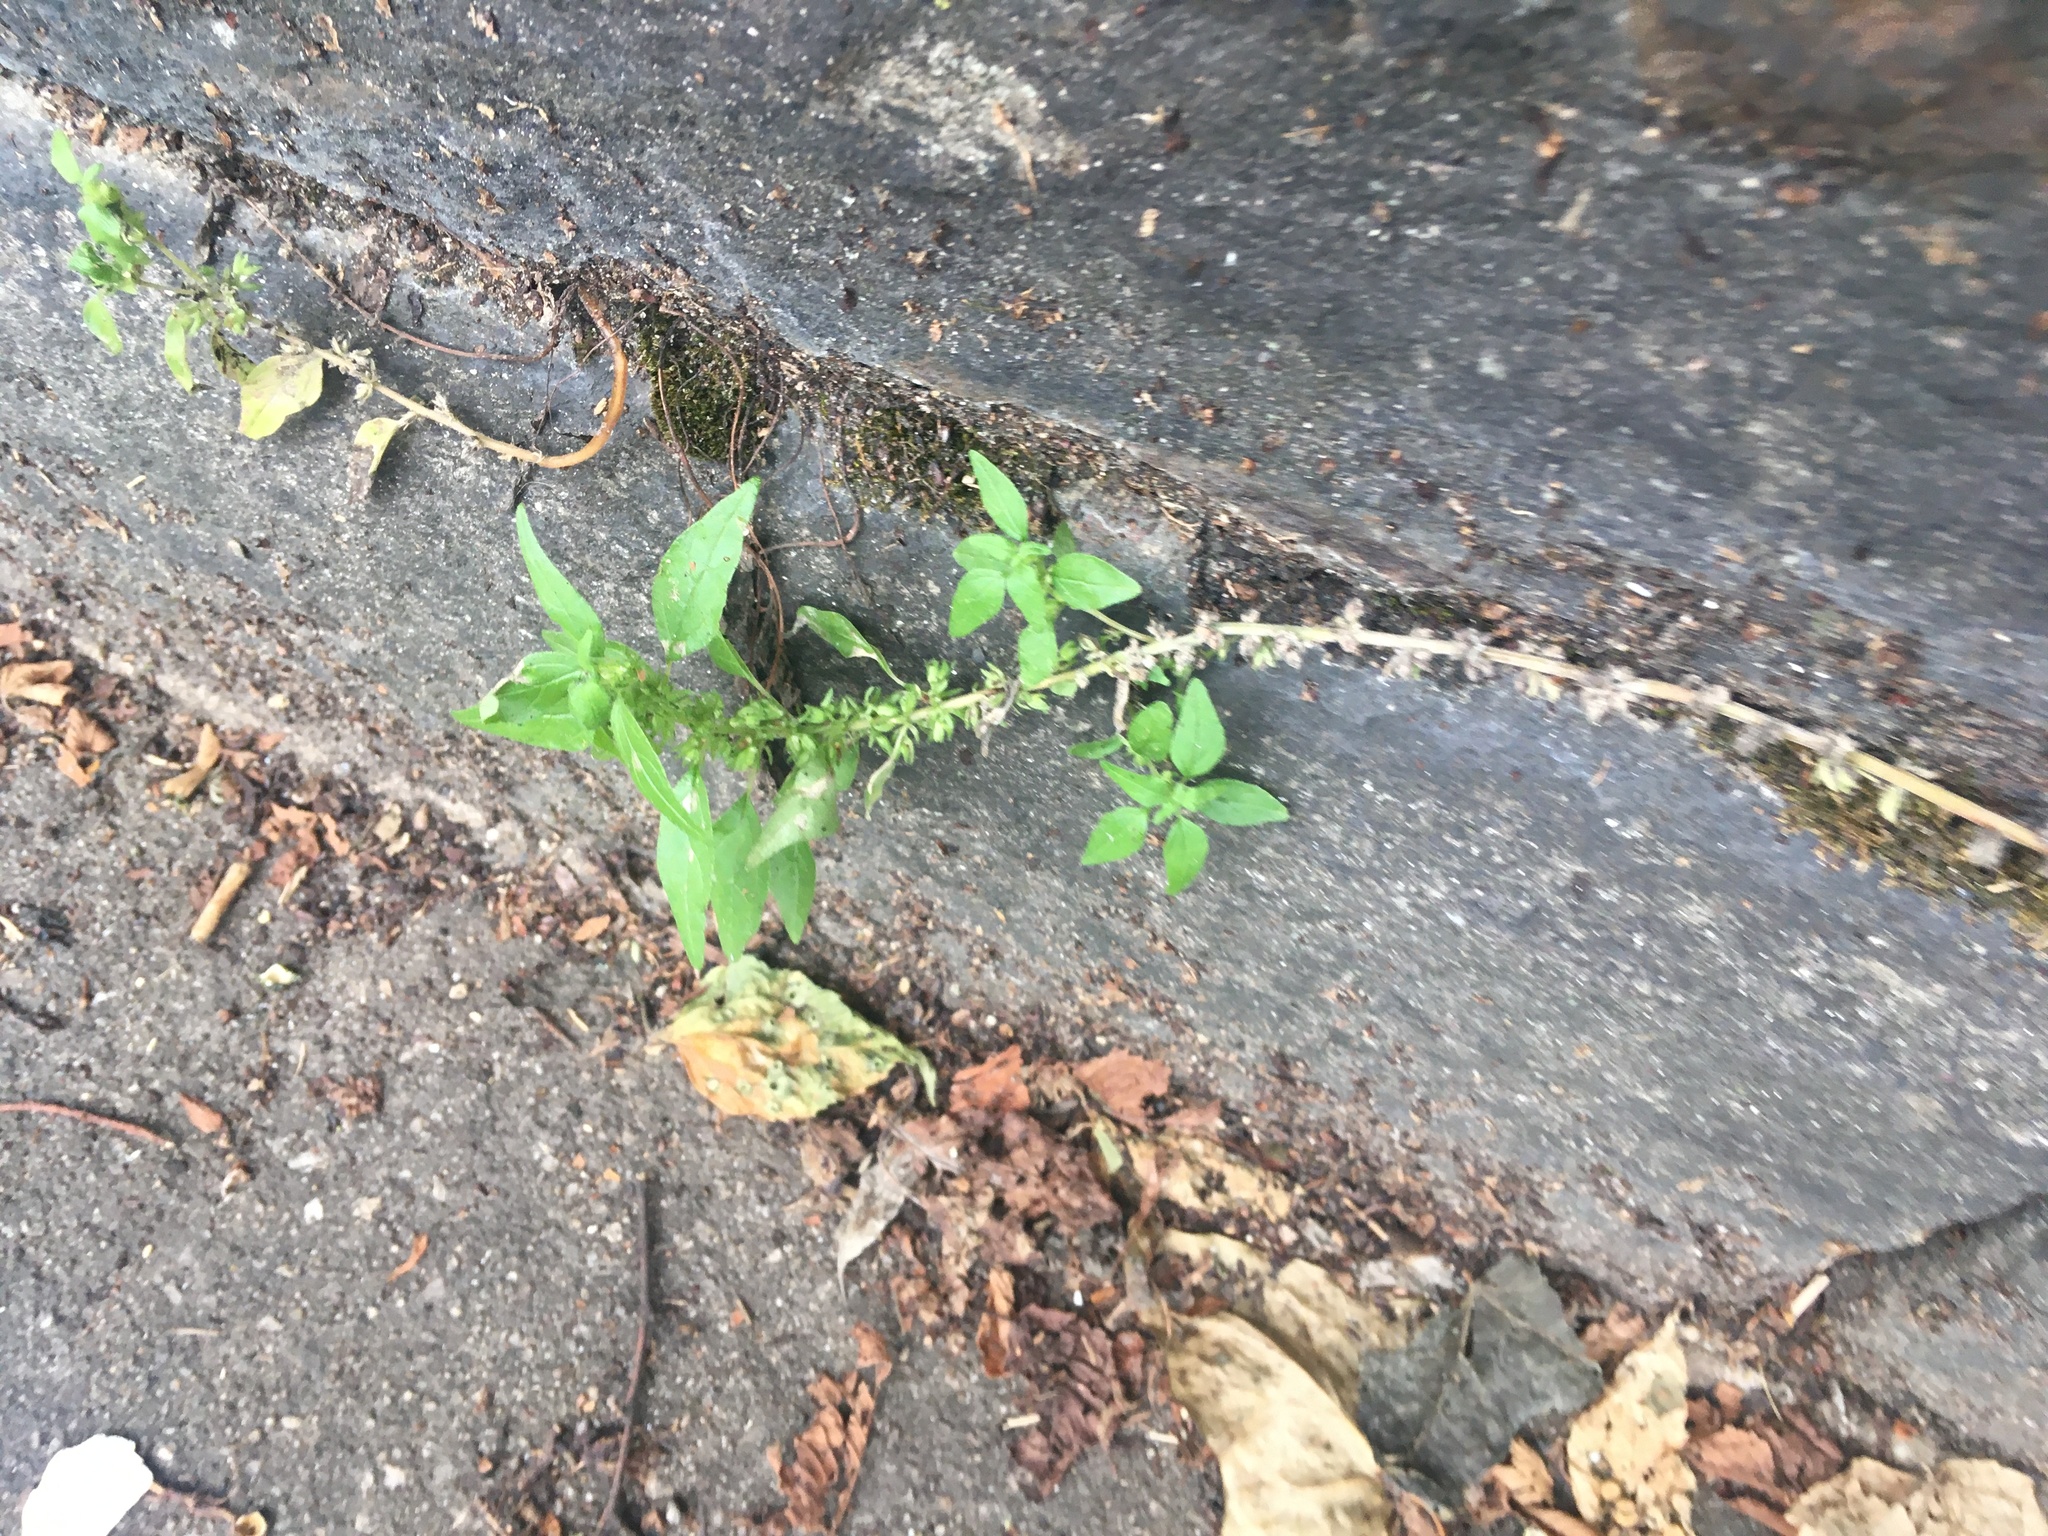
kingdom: Plantae
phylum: Tracheophyta
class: Magnoliopsida
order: Rosales
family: Urticaceae
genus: Parietaria
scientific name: Parietaria pensylvanica
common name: Pennsylvania pellitory
